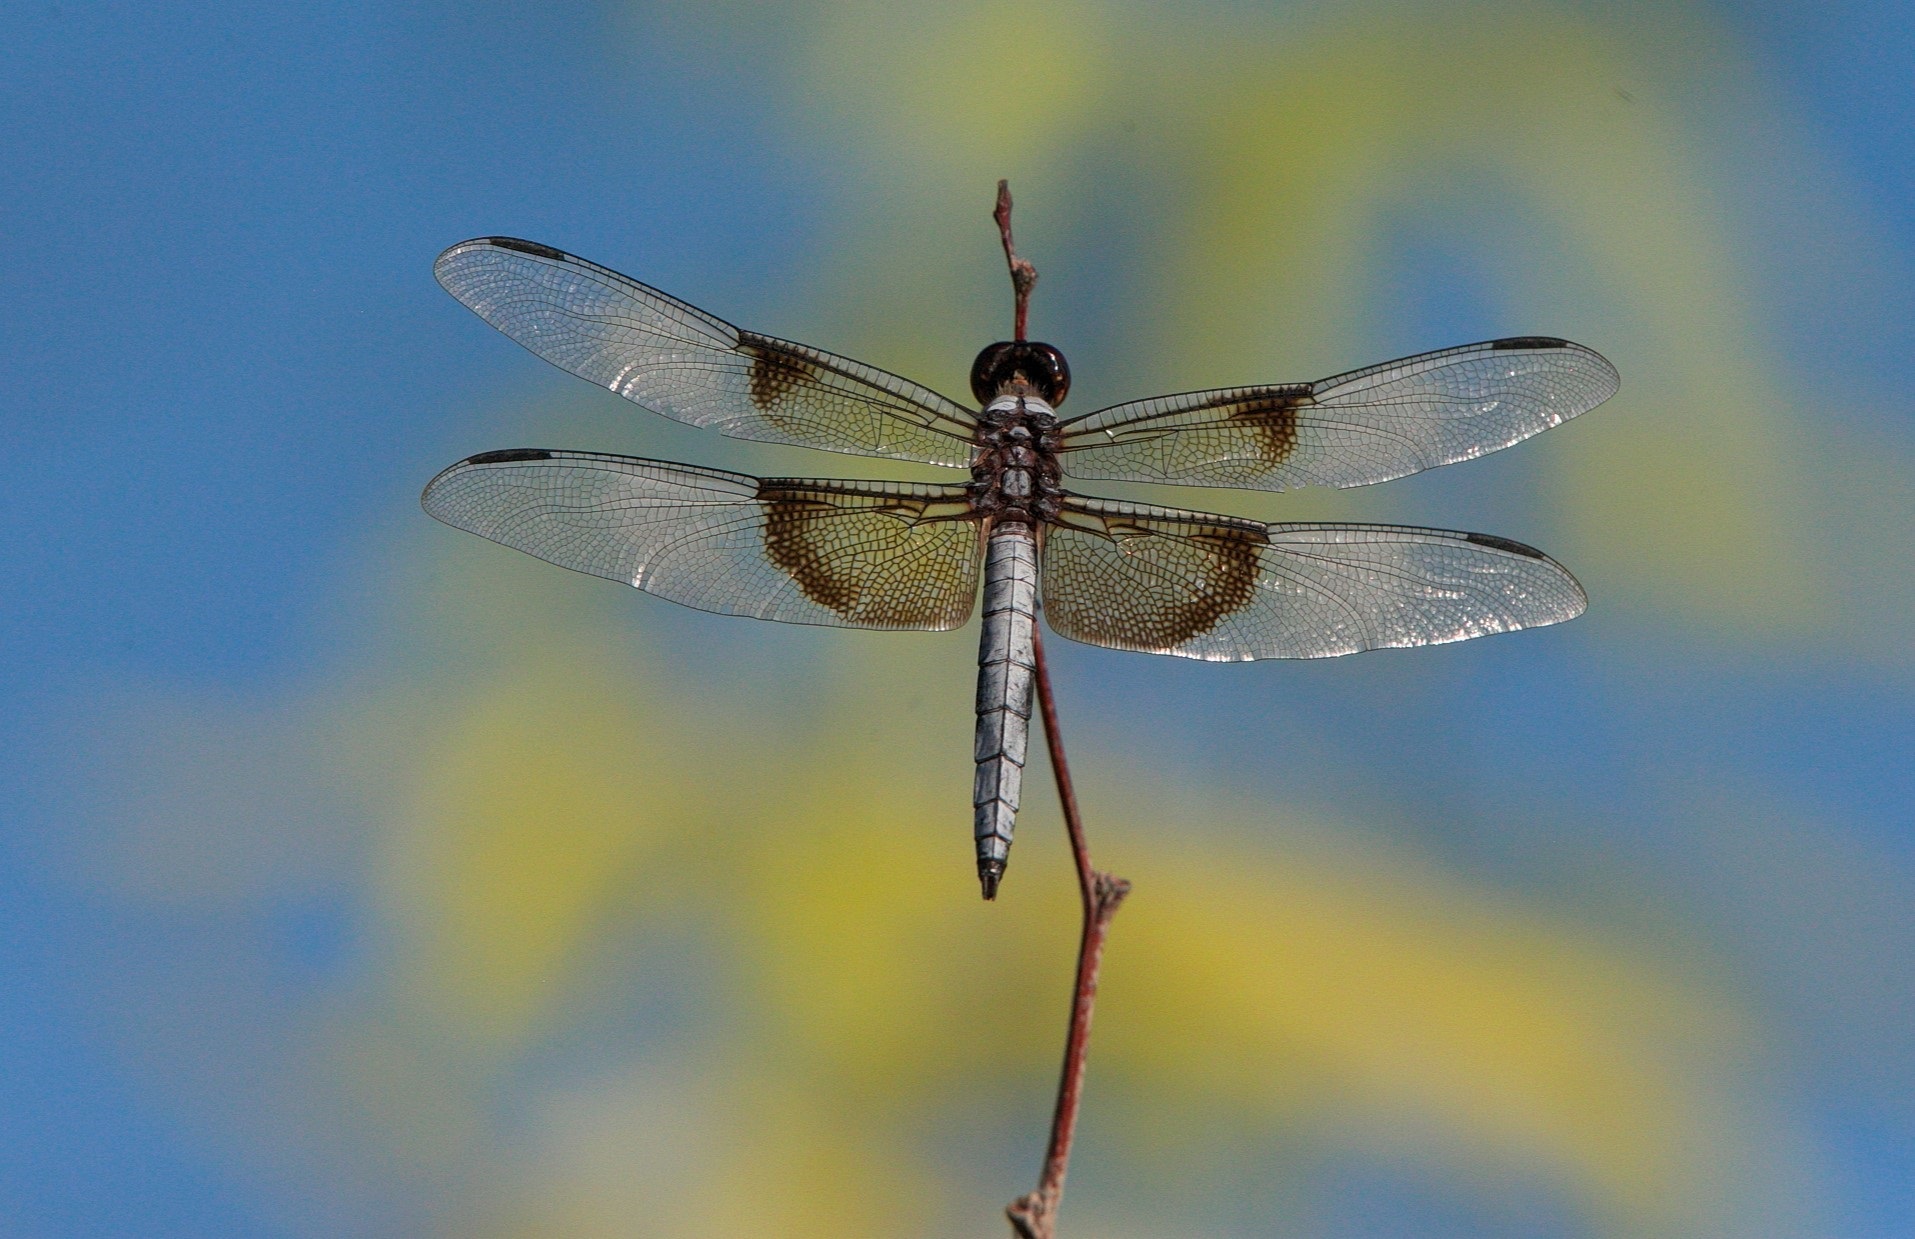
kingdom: Animalia
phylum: Arthropoda
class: Insecta
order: Odonata
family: Libellulidae
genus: Libellula
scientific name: Libellula luctuosa
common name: Widow skimmer
